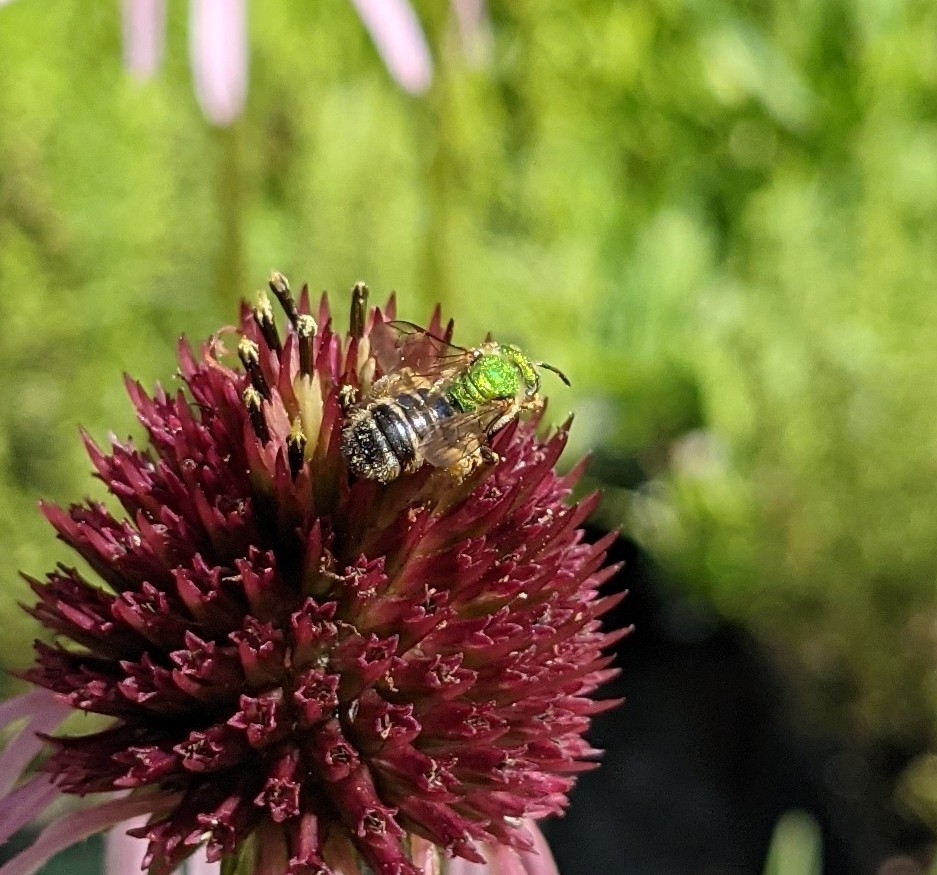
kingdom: Animalia
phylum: Arthropoda
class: Insecta
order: Hymenoptera
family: Halictidae
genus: Agapostemon
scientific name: Agapostemon virescens
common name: Bicolored striped sweat bee
